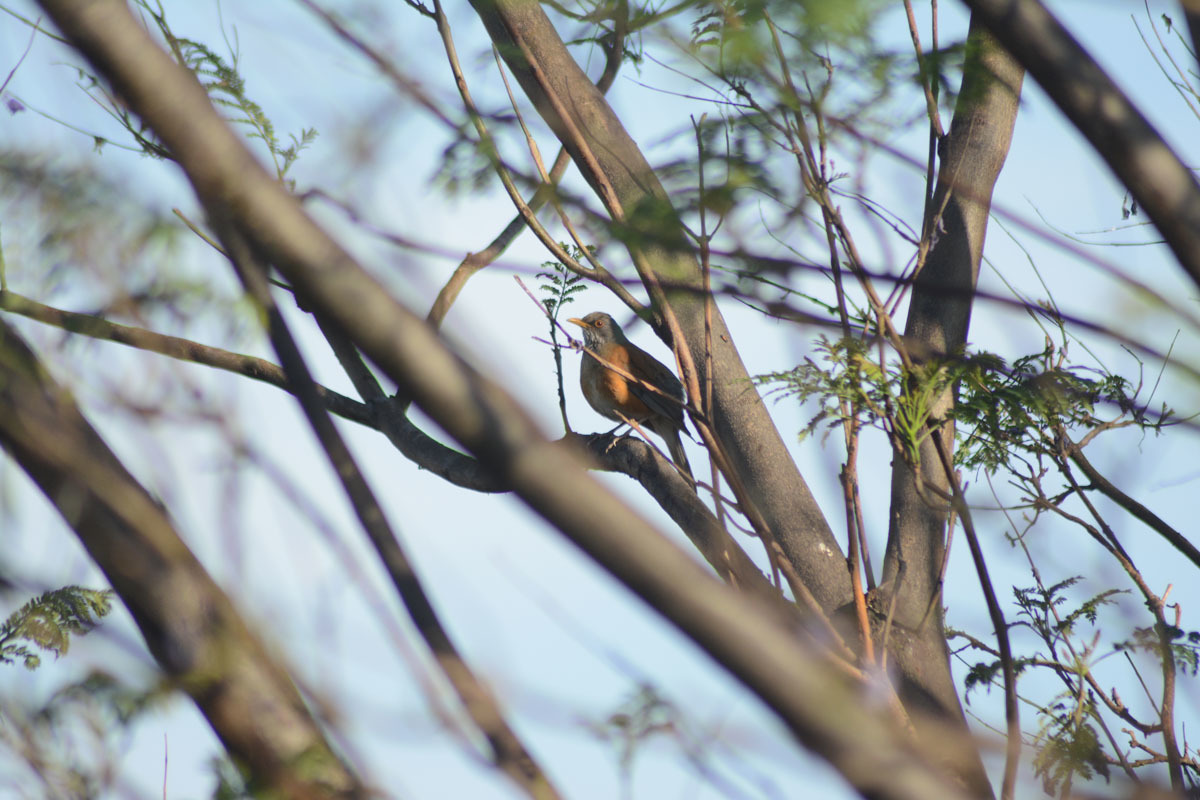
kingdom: Animalia
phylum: Chordata
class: Aves
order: Passeriformes
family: Turdidae
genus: Turdus
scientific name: Turdus rufopalliatus
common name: Rufous-backed robin
